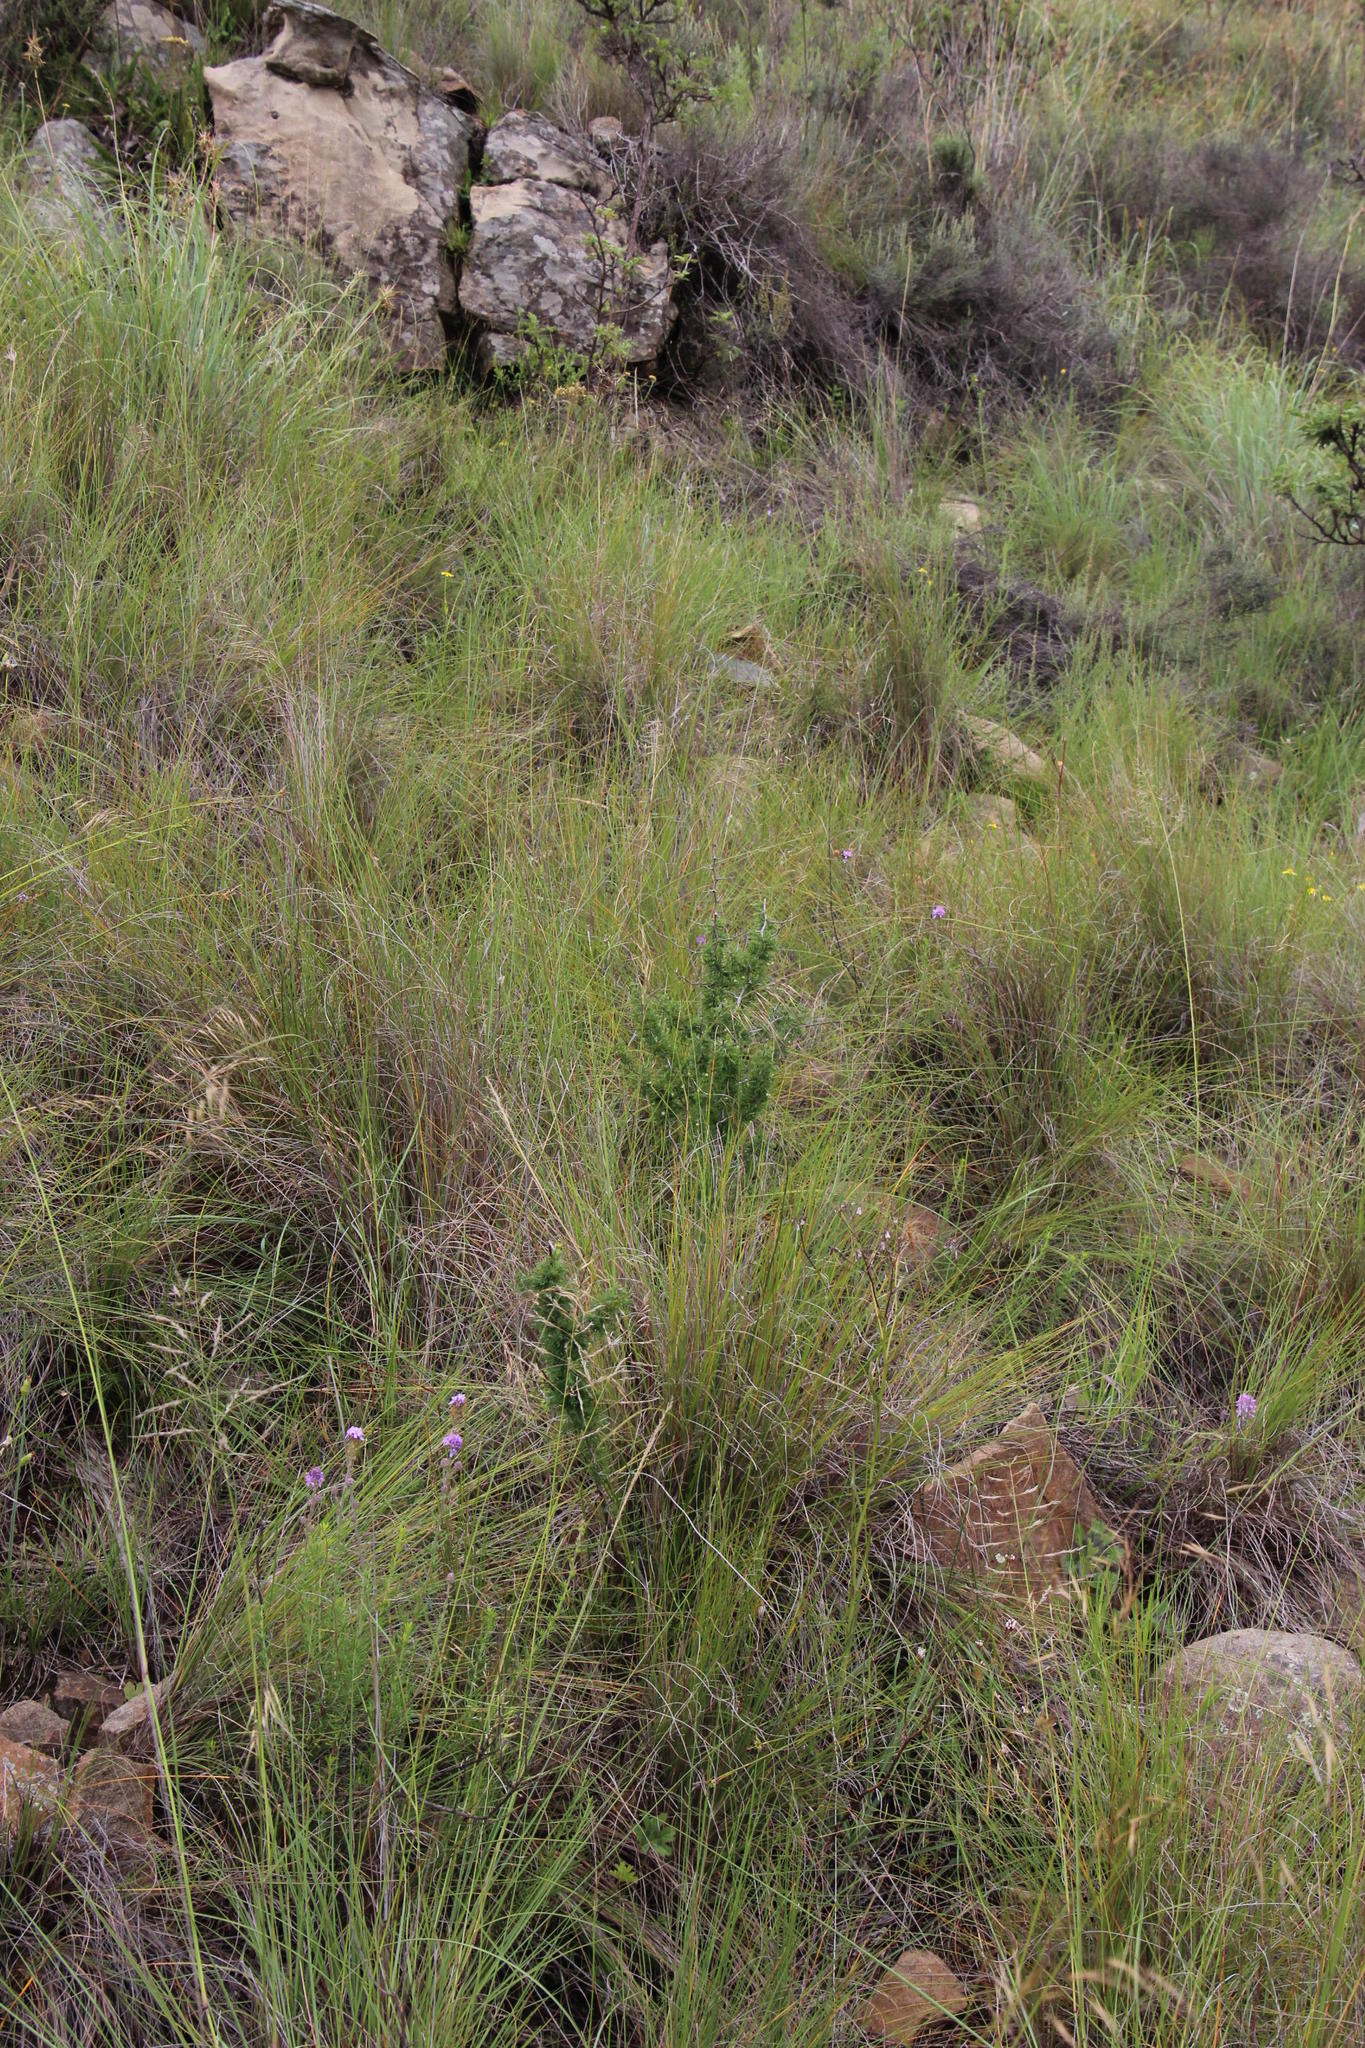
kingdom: Plantae
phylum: Tracheophyta
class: Liliopsida
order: Asparagales
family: Asparagaceae
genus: Asparagus
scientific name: Asparagus suaveolens
